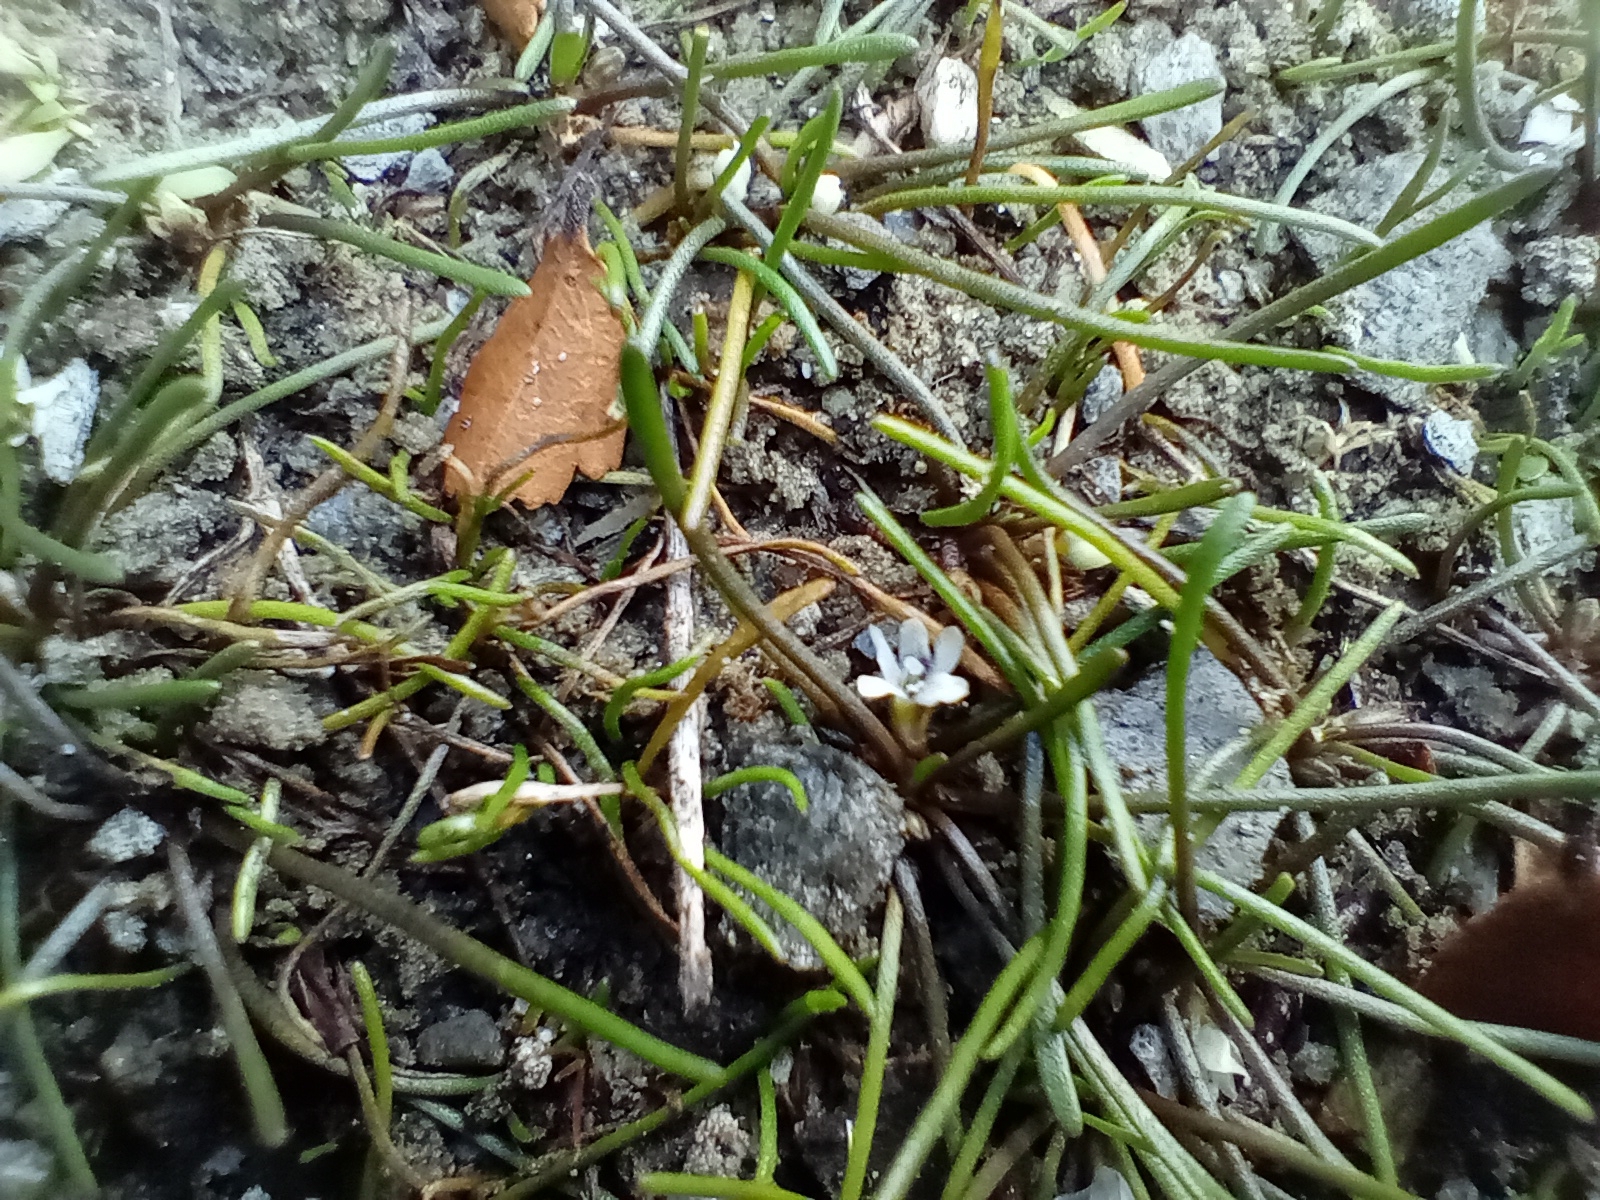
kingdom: Plantae
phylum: Tracheophyta
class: Magnoliopsida
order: Lamiales
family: Scrophulariaceae
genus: Limosella
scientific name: Limosella australis
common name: Welsh mudwort
